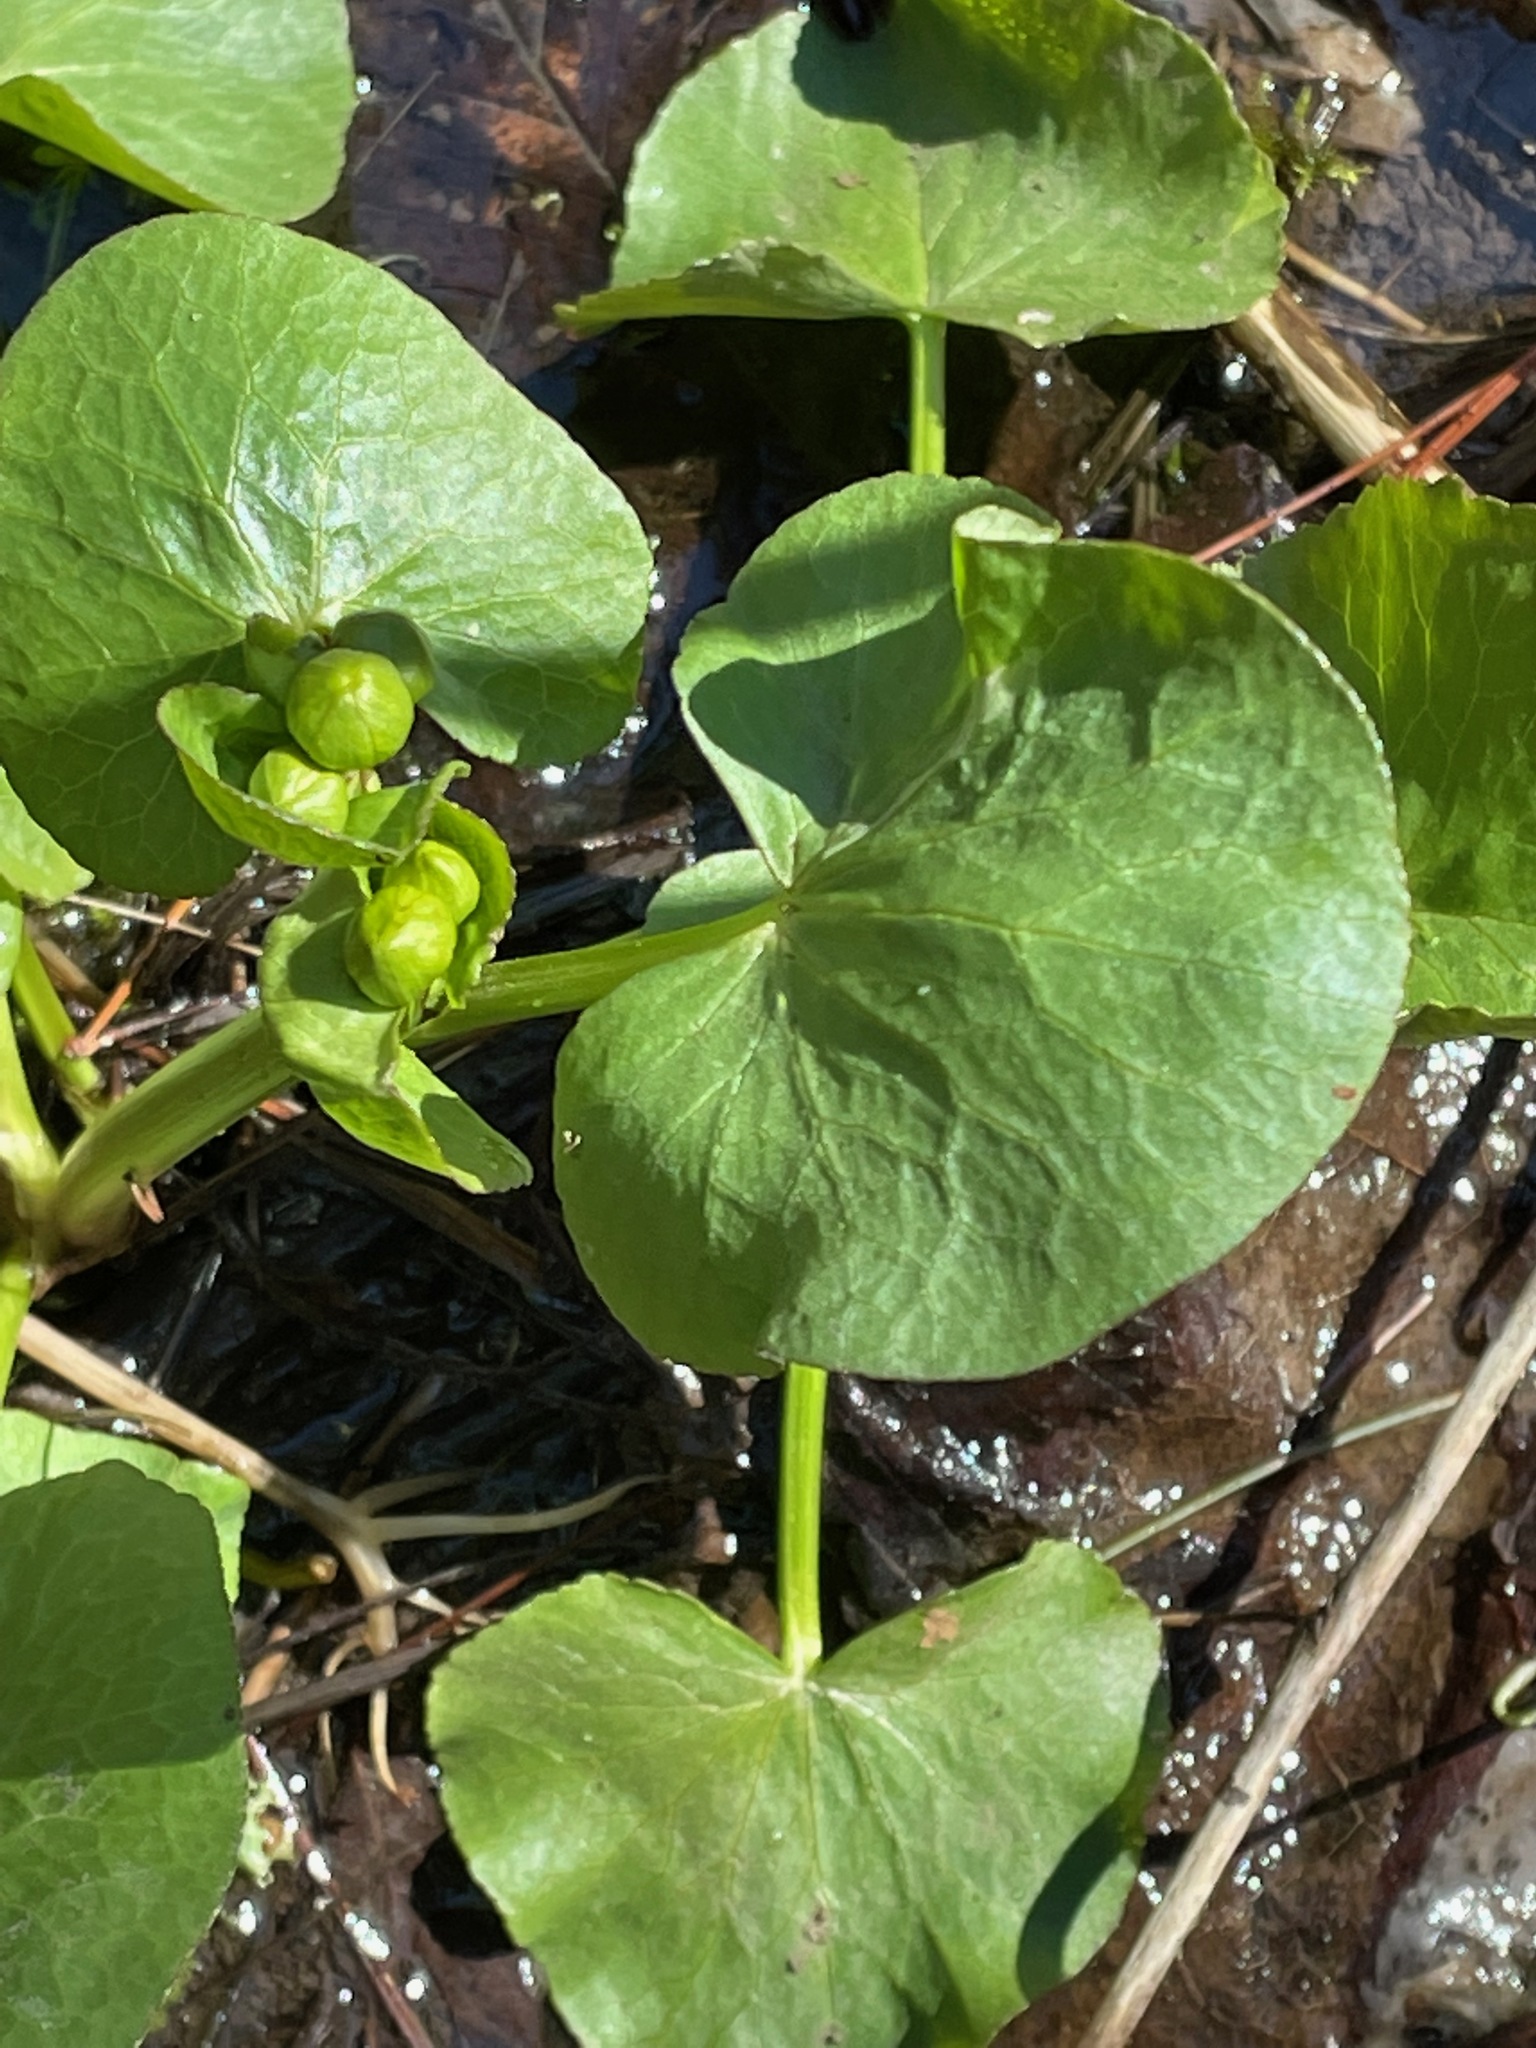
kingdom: Plantae
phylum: Tracheophyta
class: Magnoliopsida
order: Ranunculales
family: Ranunculaceae
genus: Caltha
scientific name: Caltha palustris
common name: Marsh marigold
